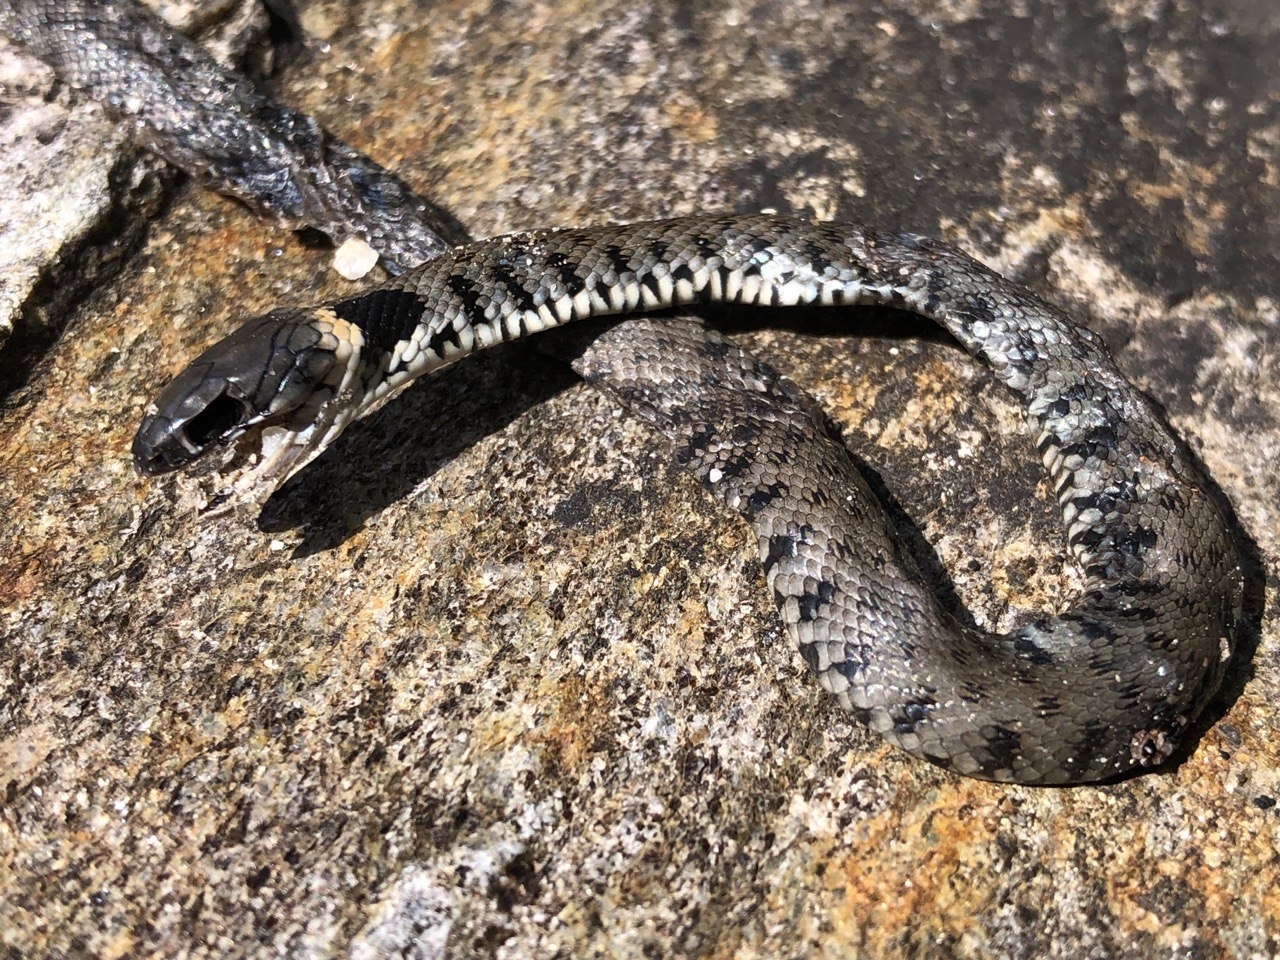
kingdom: Animalia
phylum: Chordata
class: Squamata
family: Colubridae
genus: Natrix
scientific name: Natrix helvetica
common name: Banded grass snake
